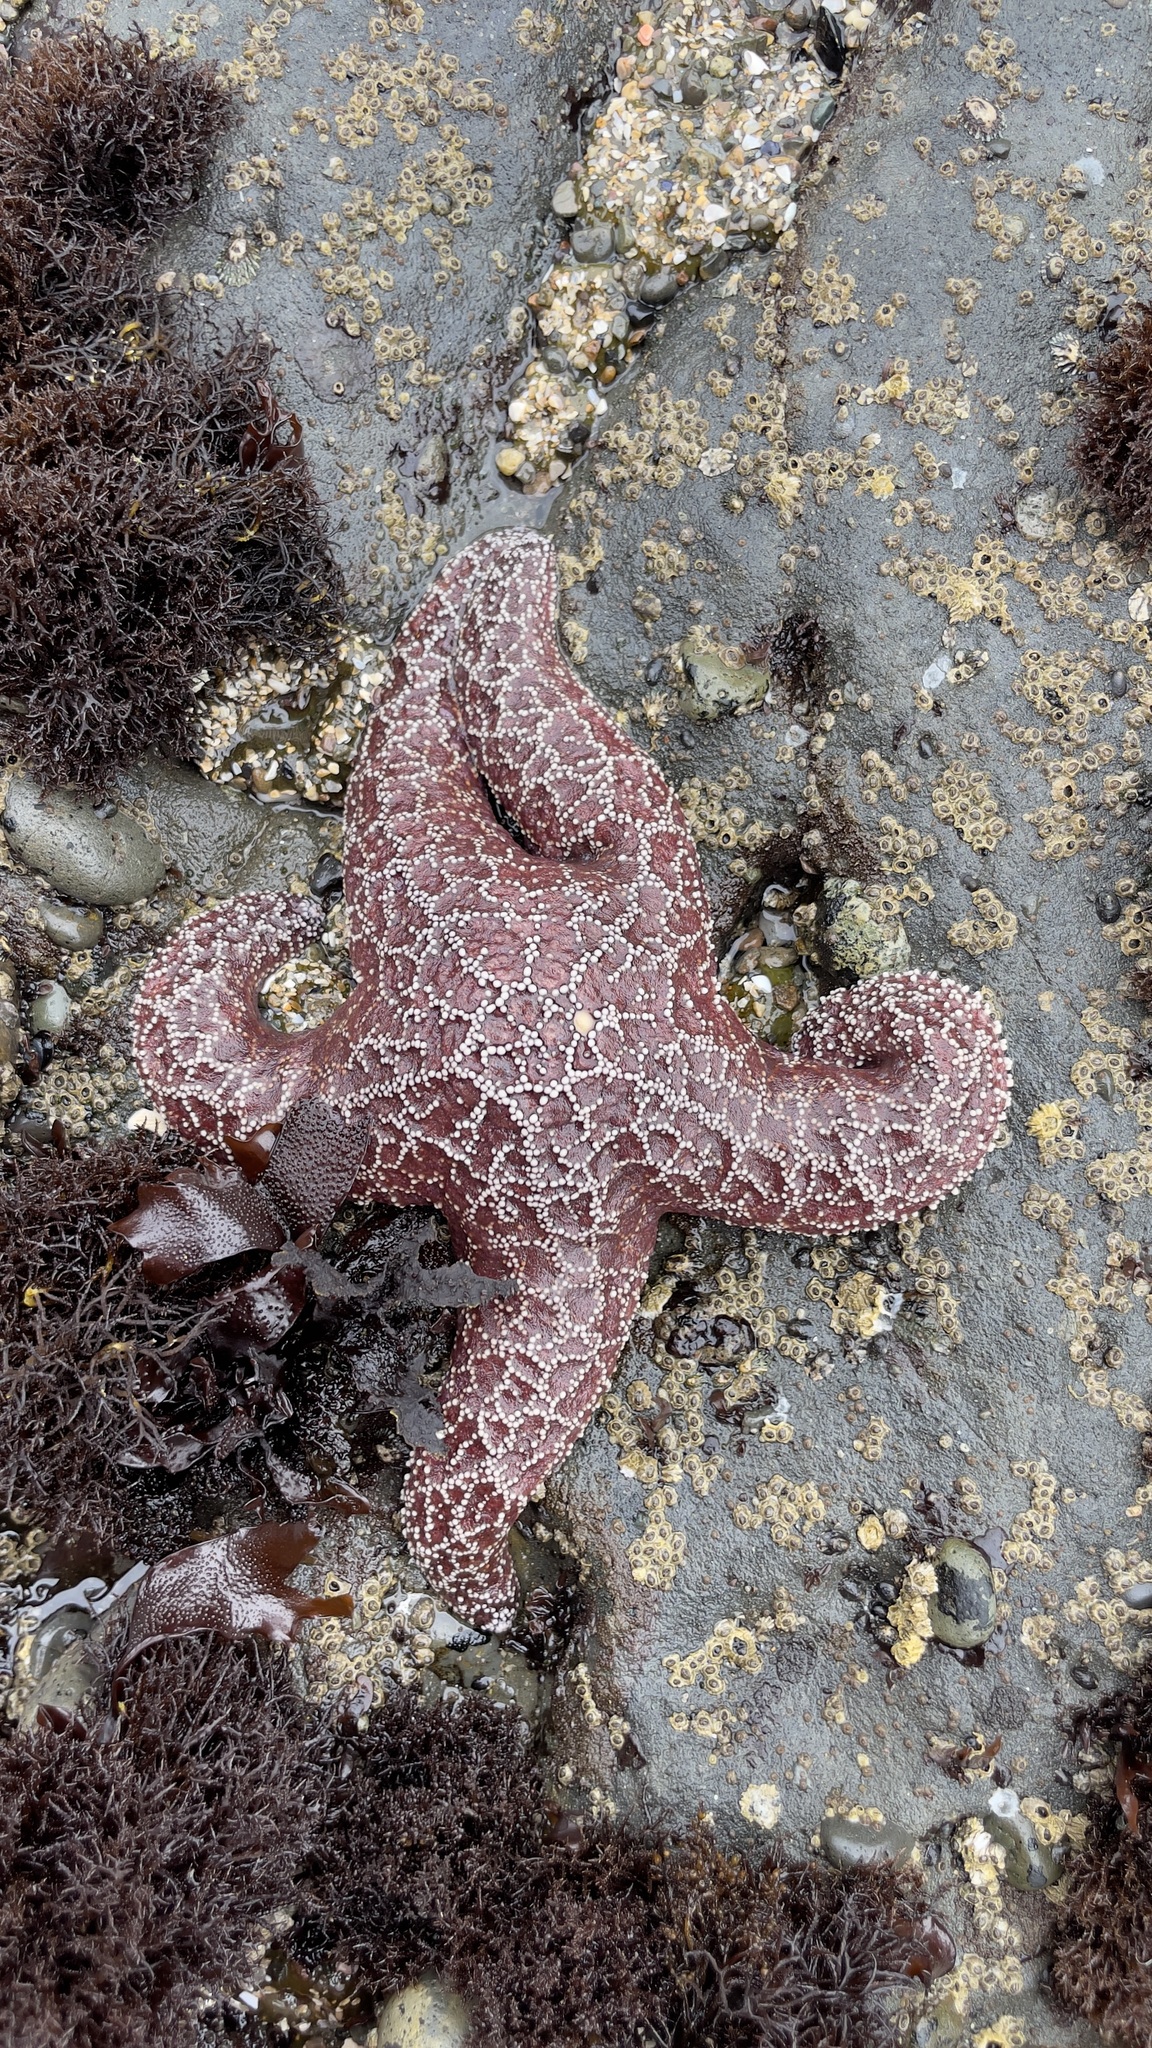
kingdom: Animalia
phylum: Echinodermata
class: Asteroidea
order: Forcipulatida
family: Asteriidae
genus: Pisaster
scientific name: Pisaster ochraceus
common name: Ochre stars
